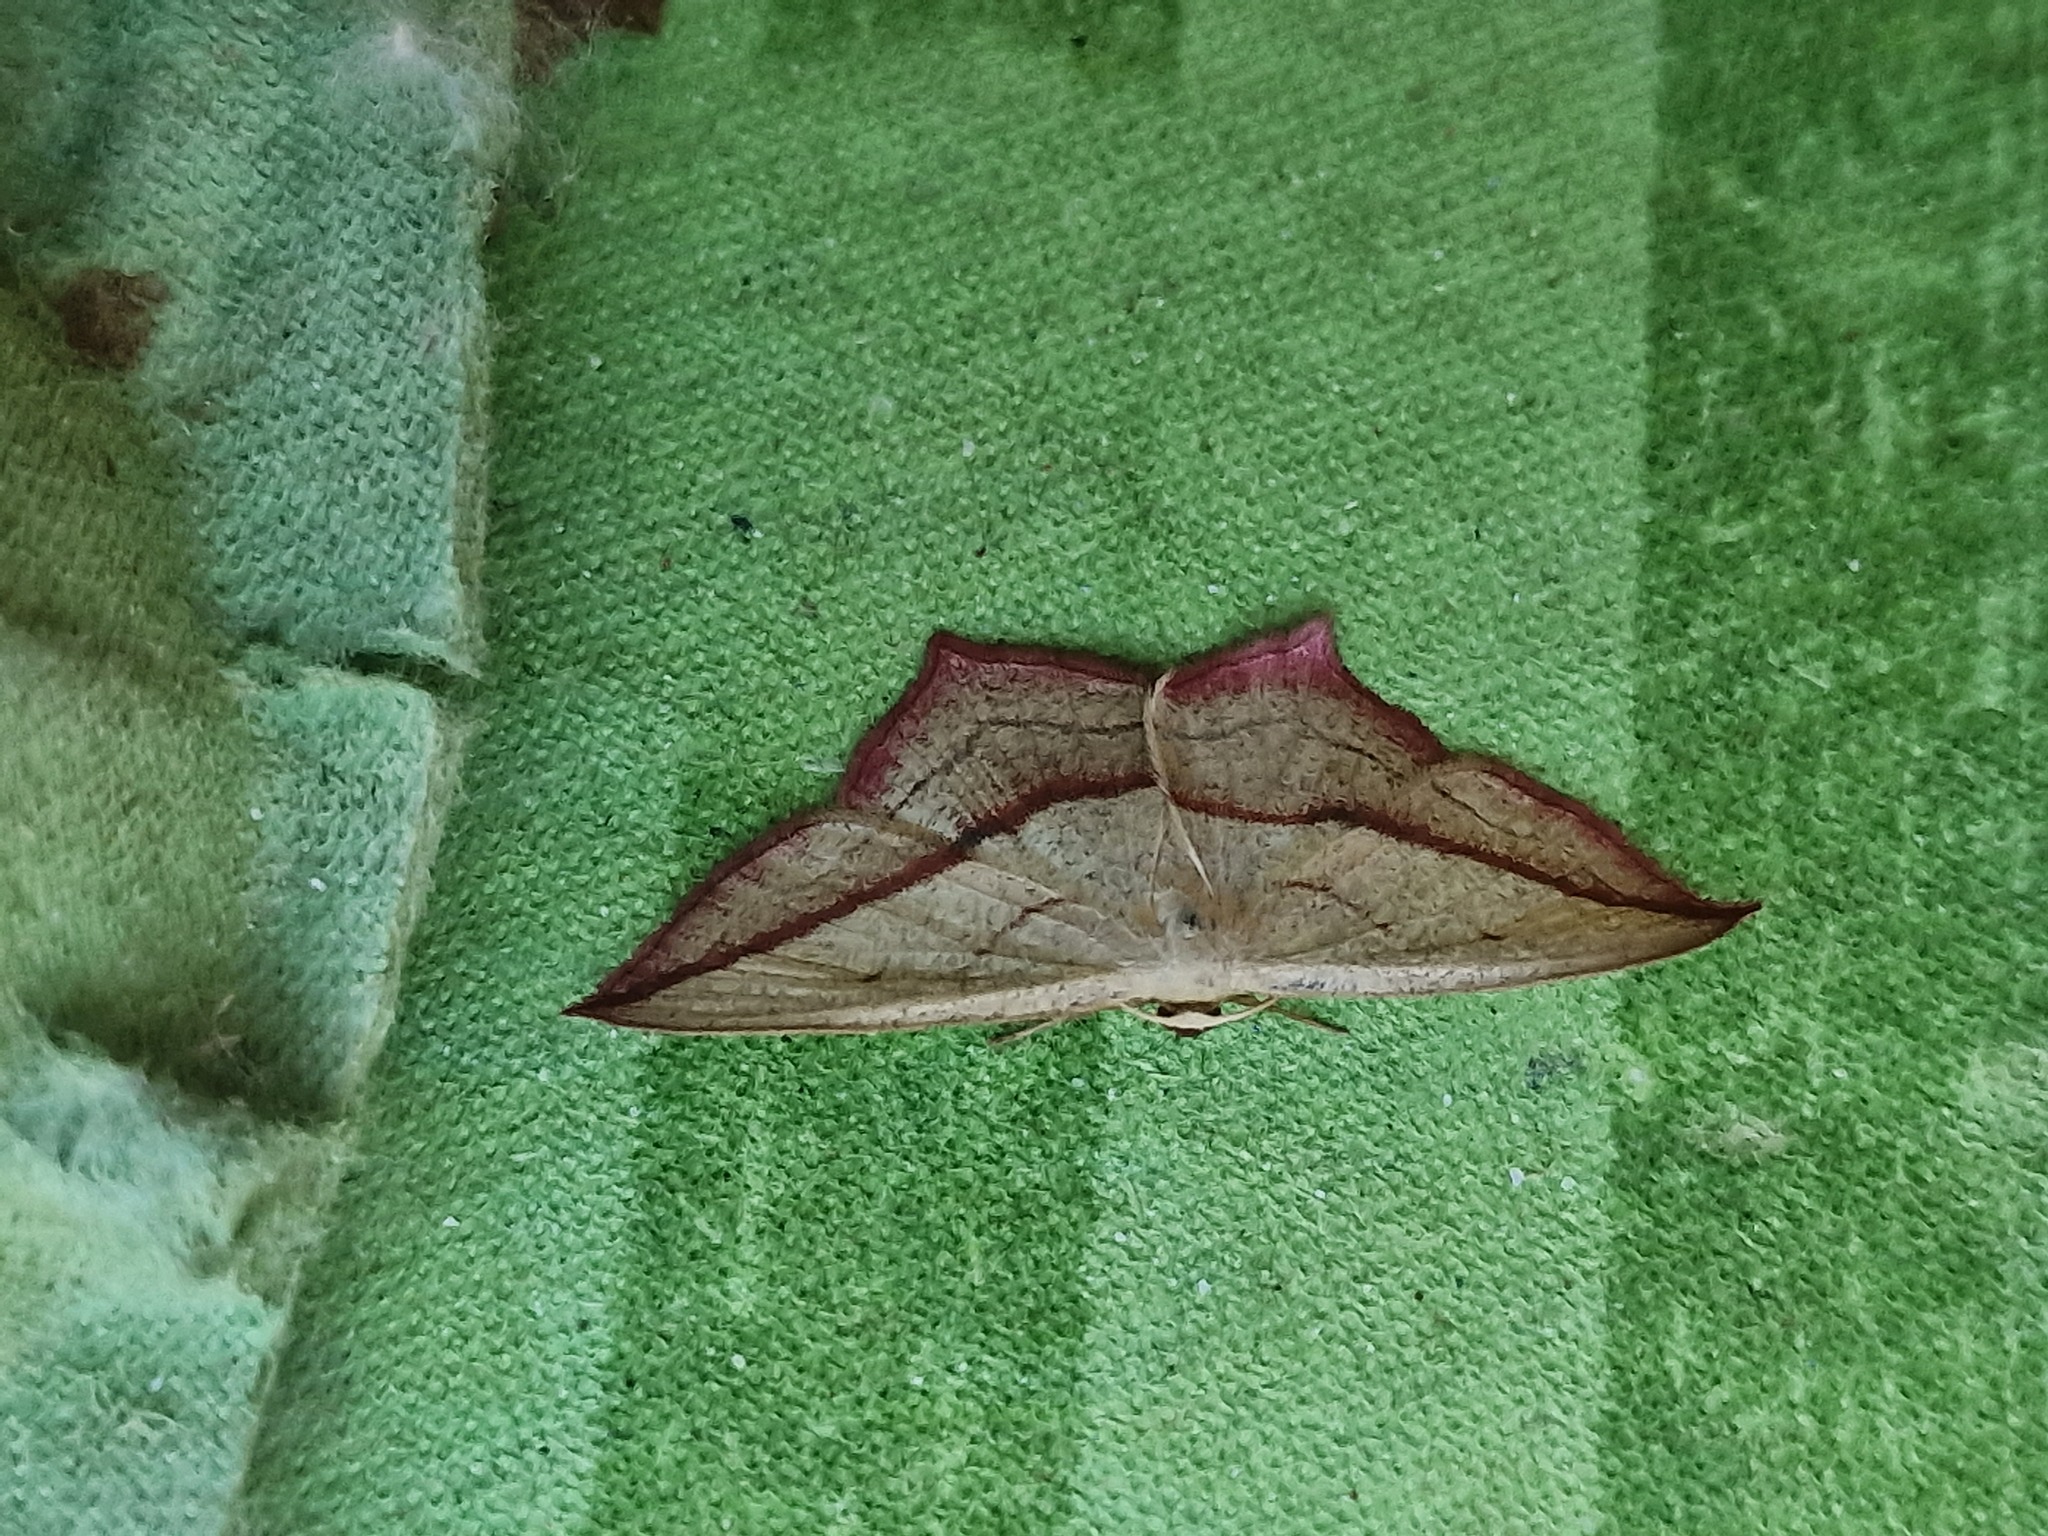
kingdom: Animalia
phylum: Arthropoda
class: Insecta
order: Lepidoptera
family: Geometridae
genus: Timandra
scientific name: Timandra comae
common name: Blood-vein
